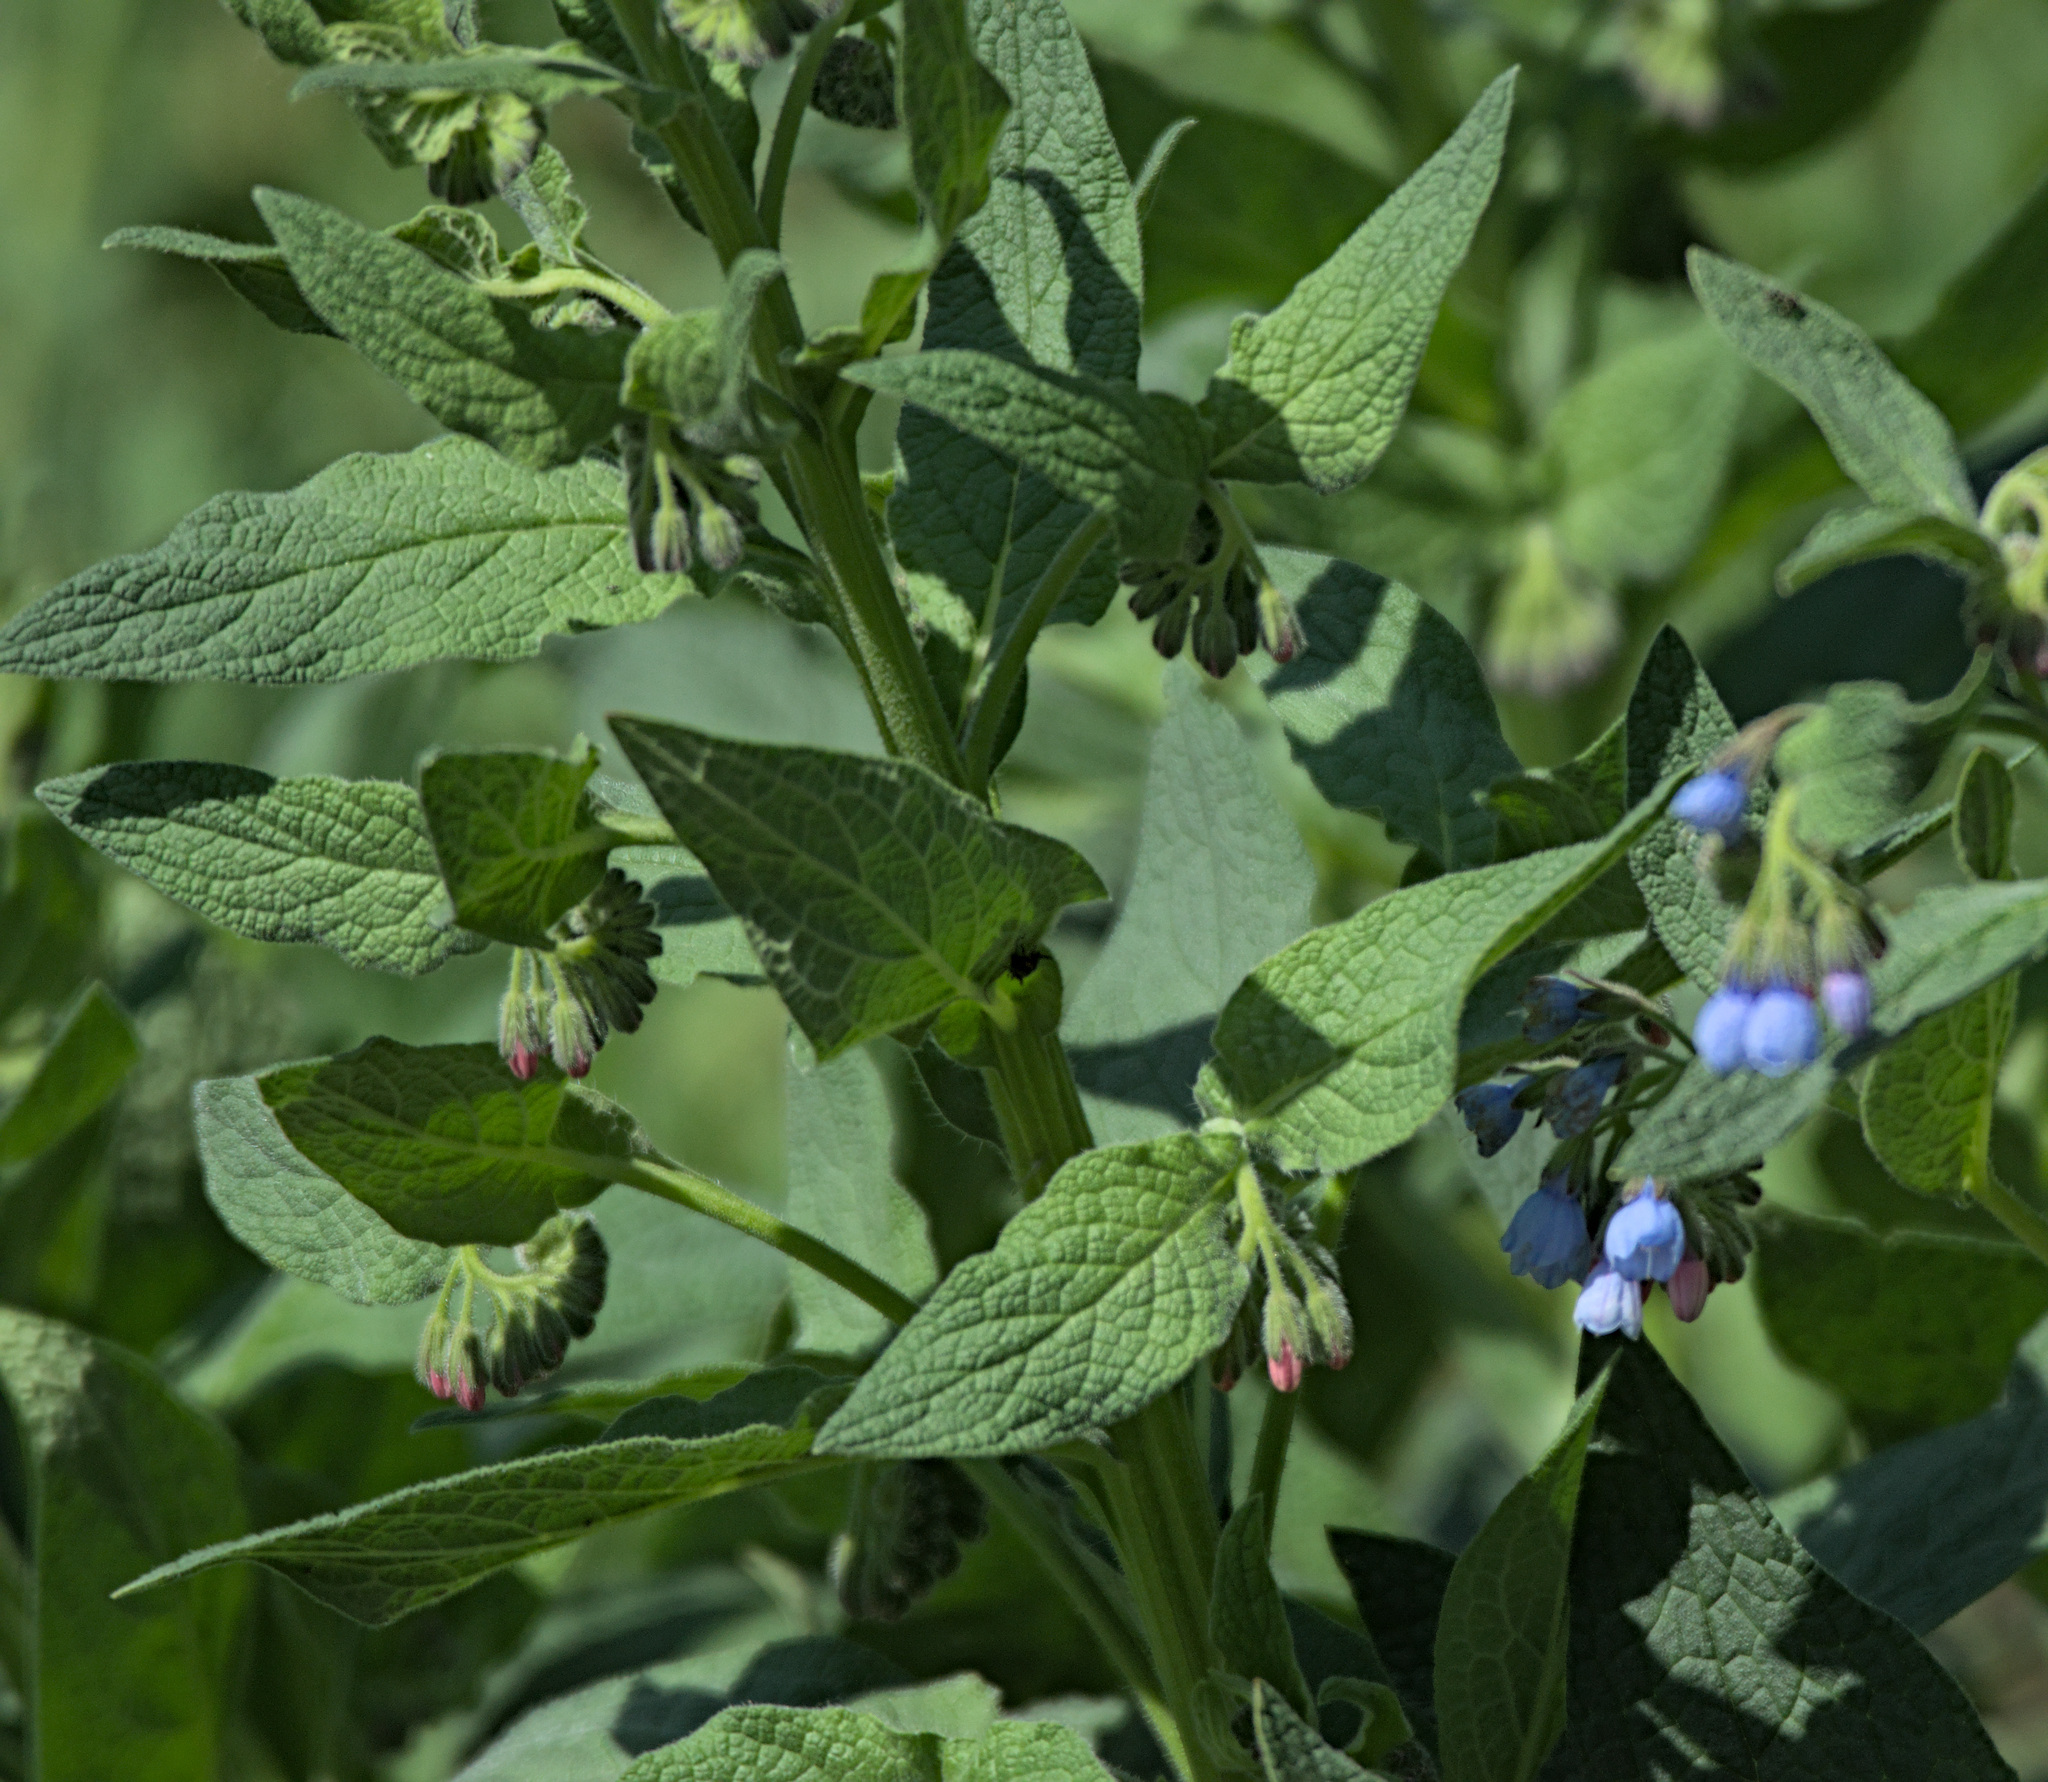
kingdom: Plantae
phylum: Tracheophyta
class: Magnoliopsida
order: Boraginales
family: Boraginaceae
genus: Symphytum
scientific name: Symphytum caucasicum
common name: Caucasian comfrey
